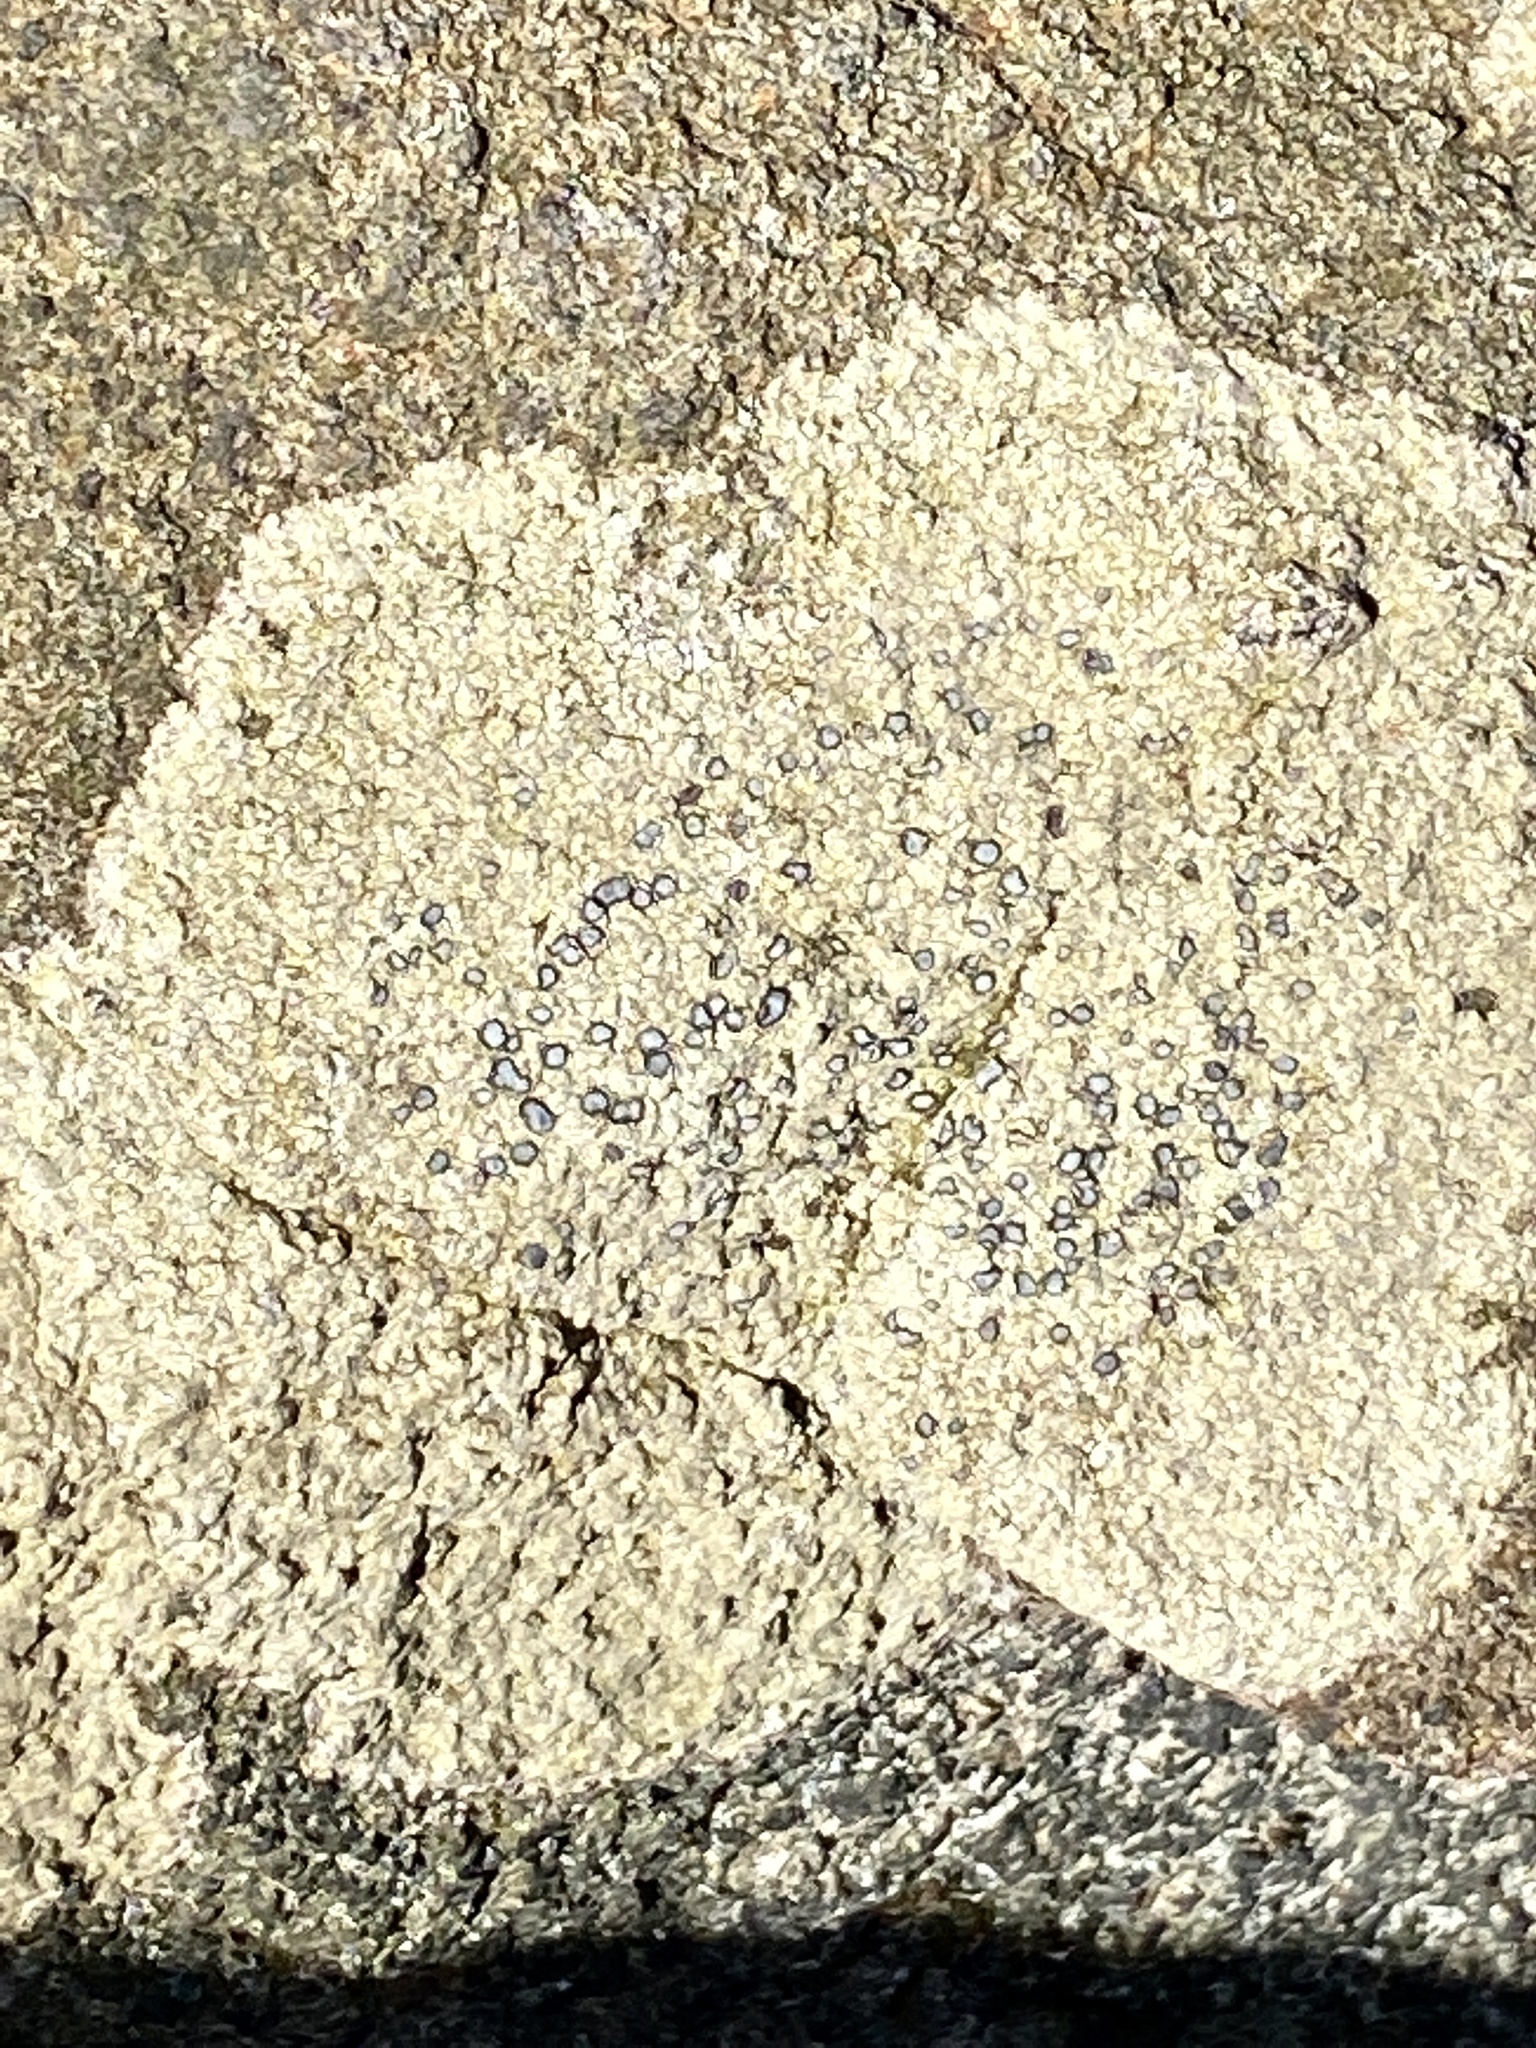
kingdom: Fungi
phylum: Ascomycota
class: Lecanoromycetes
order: Lecideales
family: Lecideaceae
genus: Porpidia
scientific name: Porpidia albocaerulescens
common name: Smokey-eyed boulder lichen
